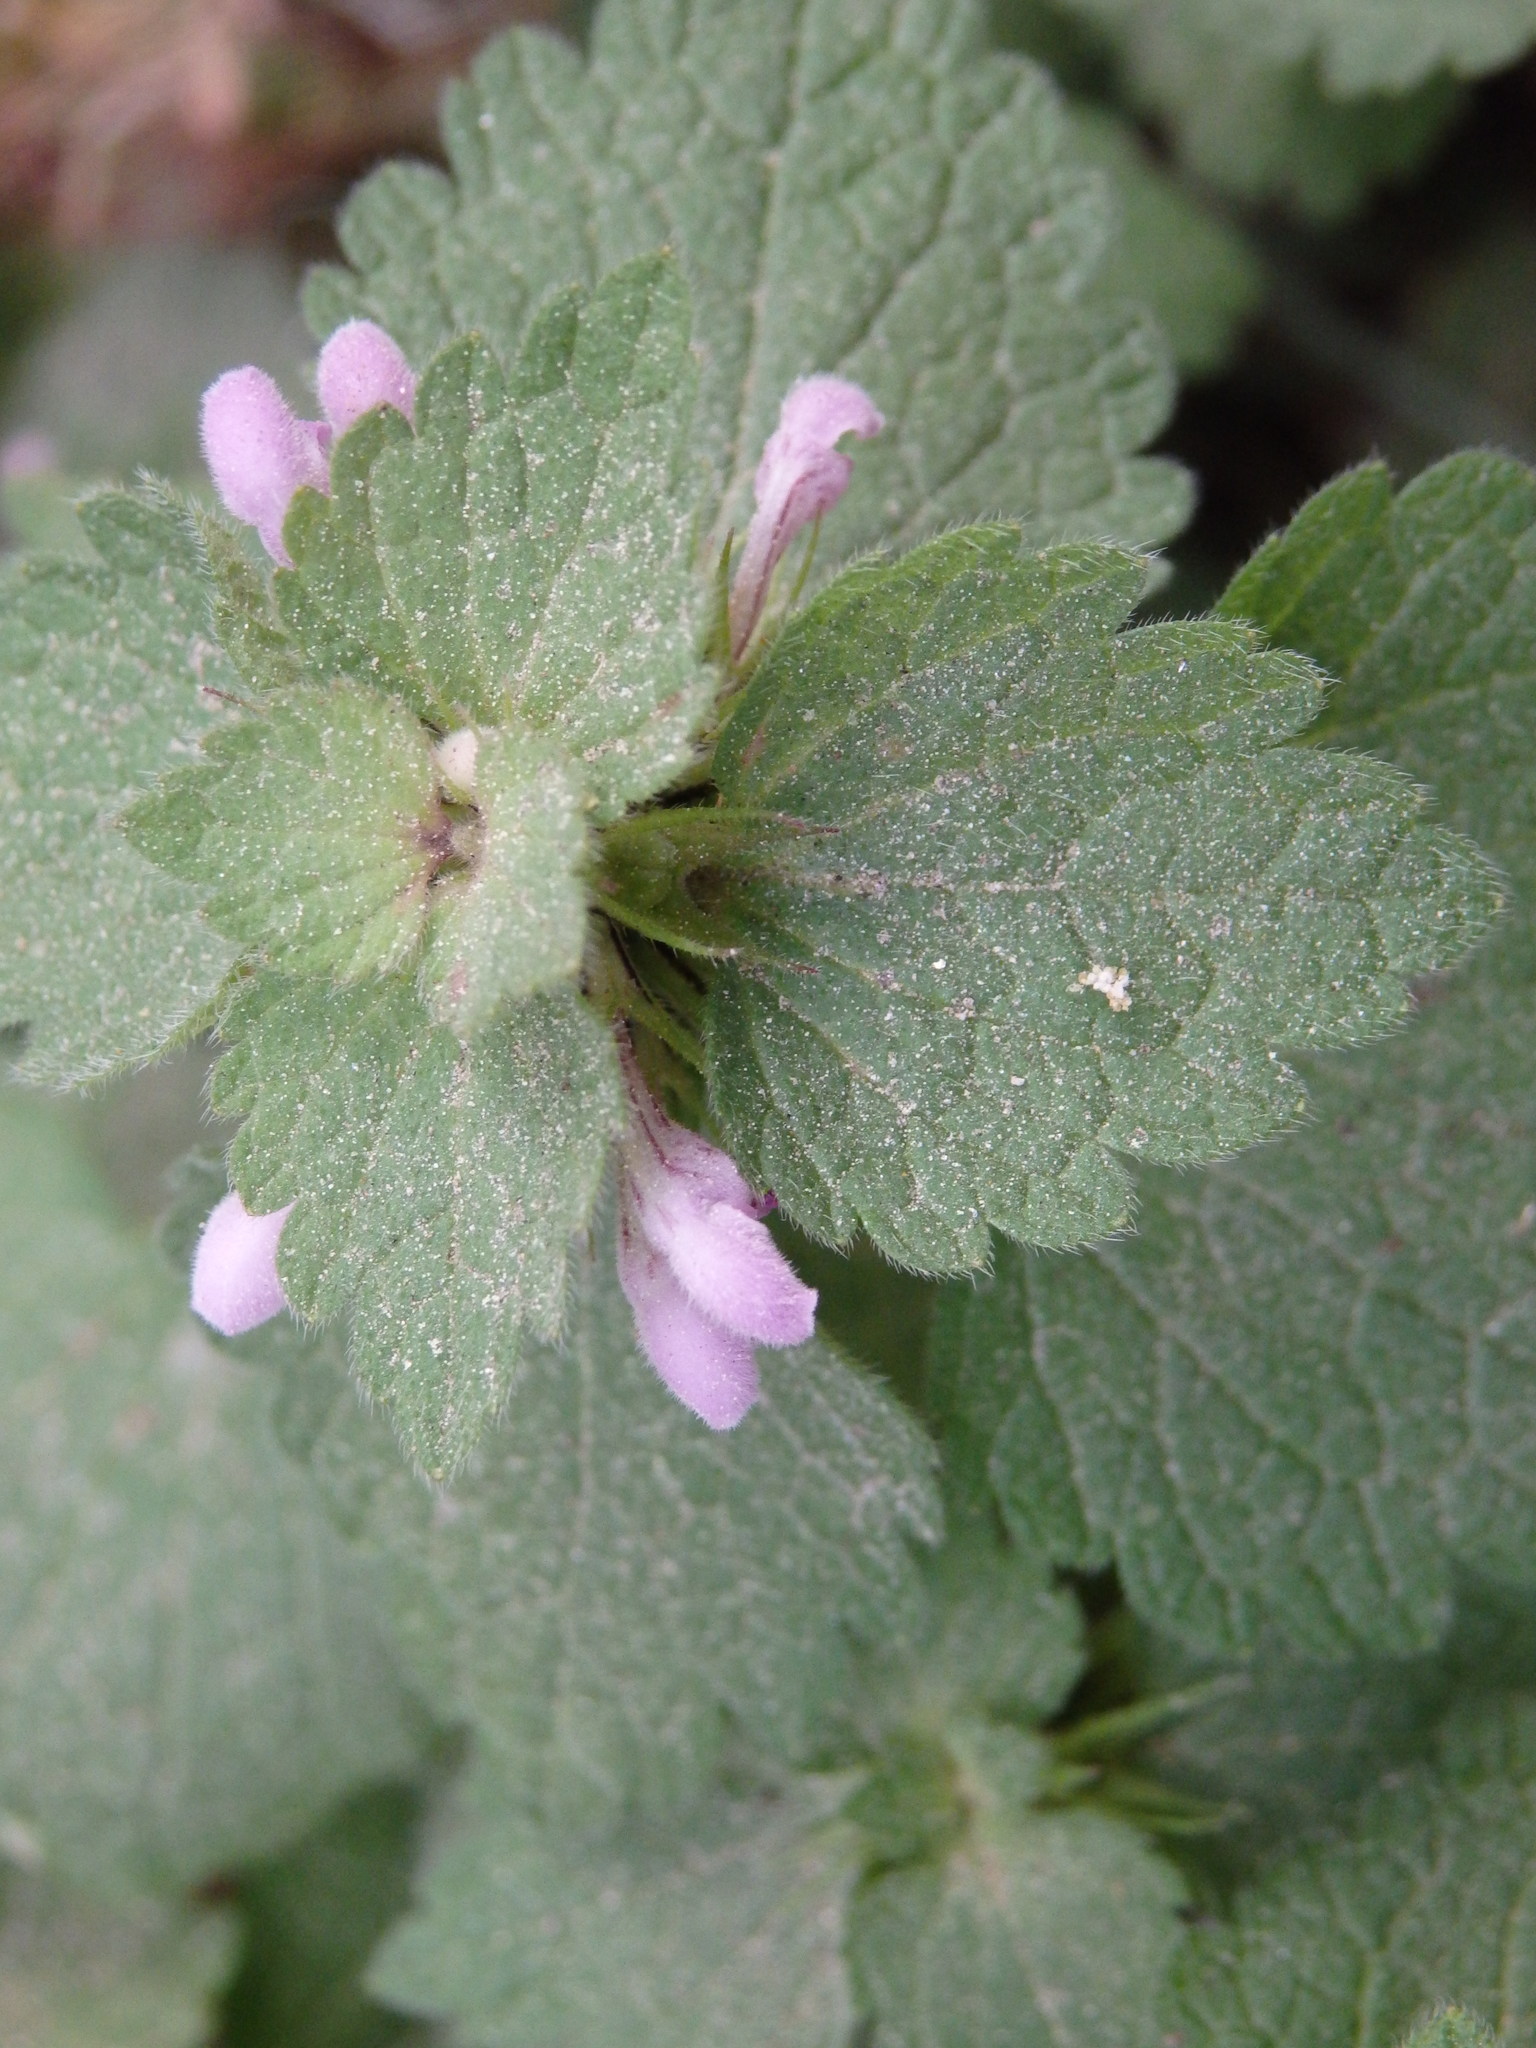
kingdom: Plantae
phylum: Tracheophyta
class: Magnoliopsida
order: Lamiales
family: Lamiaceae
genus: Lamium
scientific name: Lamium purpureum
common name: Red dead-nettle
